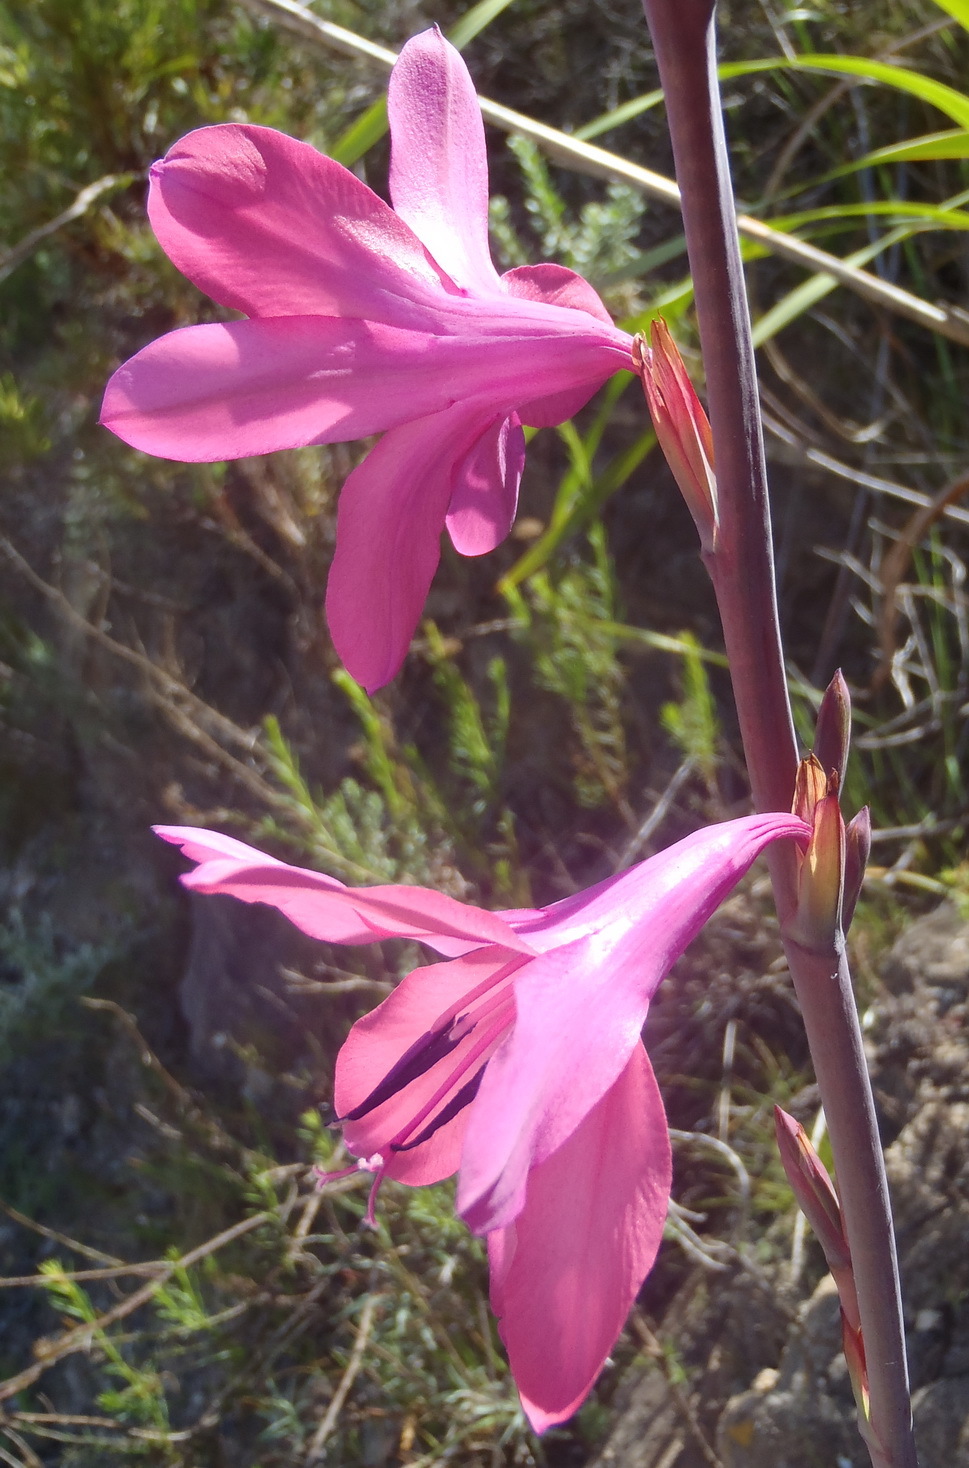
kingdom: Plantae
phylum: Tracheophyta
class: Liliopsida
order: Asparagales
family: Iridaceae
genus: Watsonia
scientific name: Watsonia borbonica
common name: Bugle-lily
